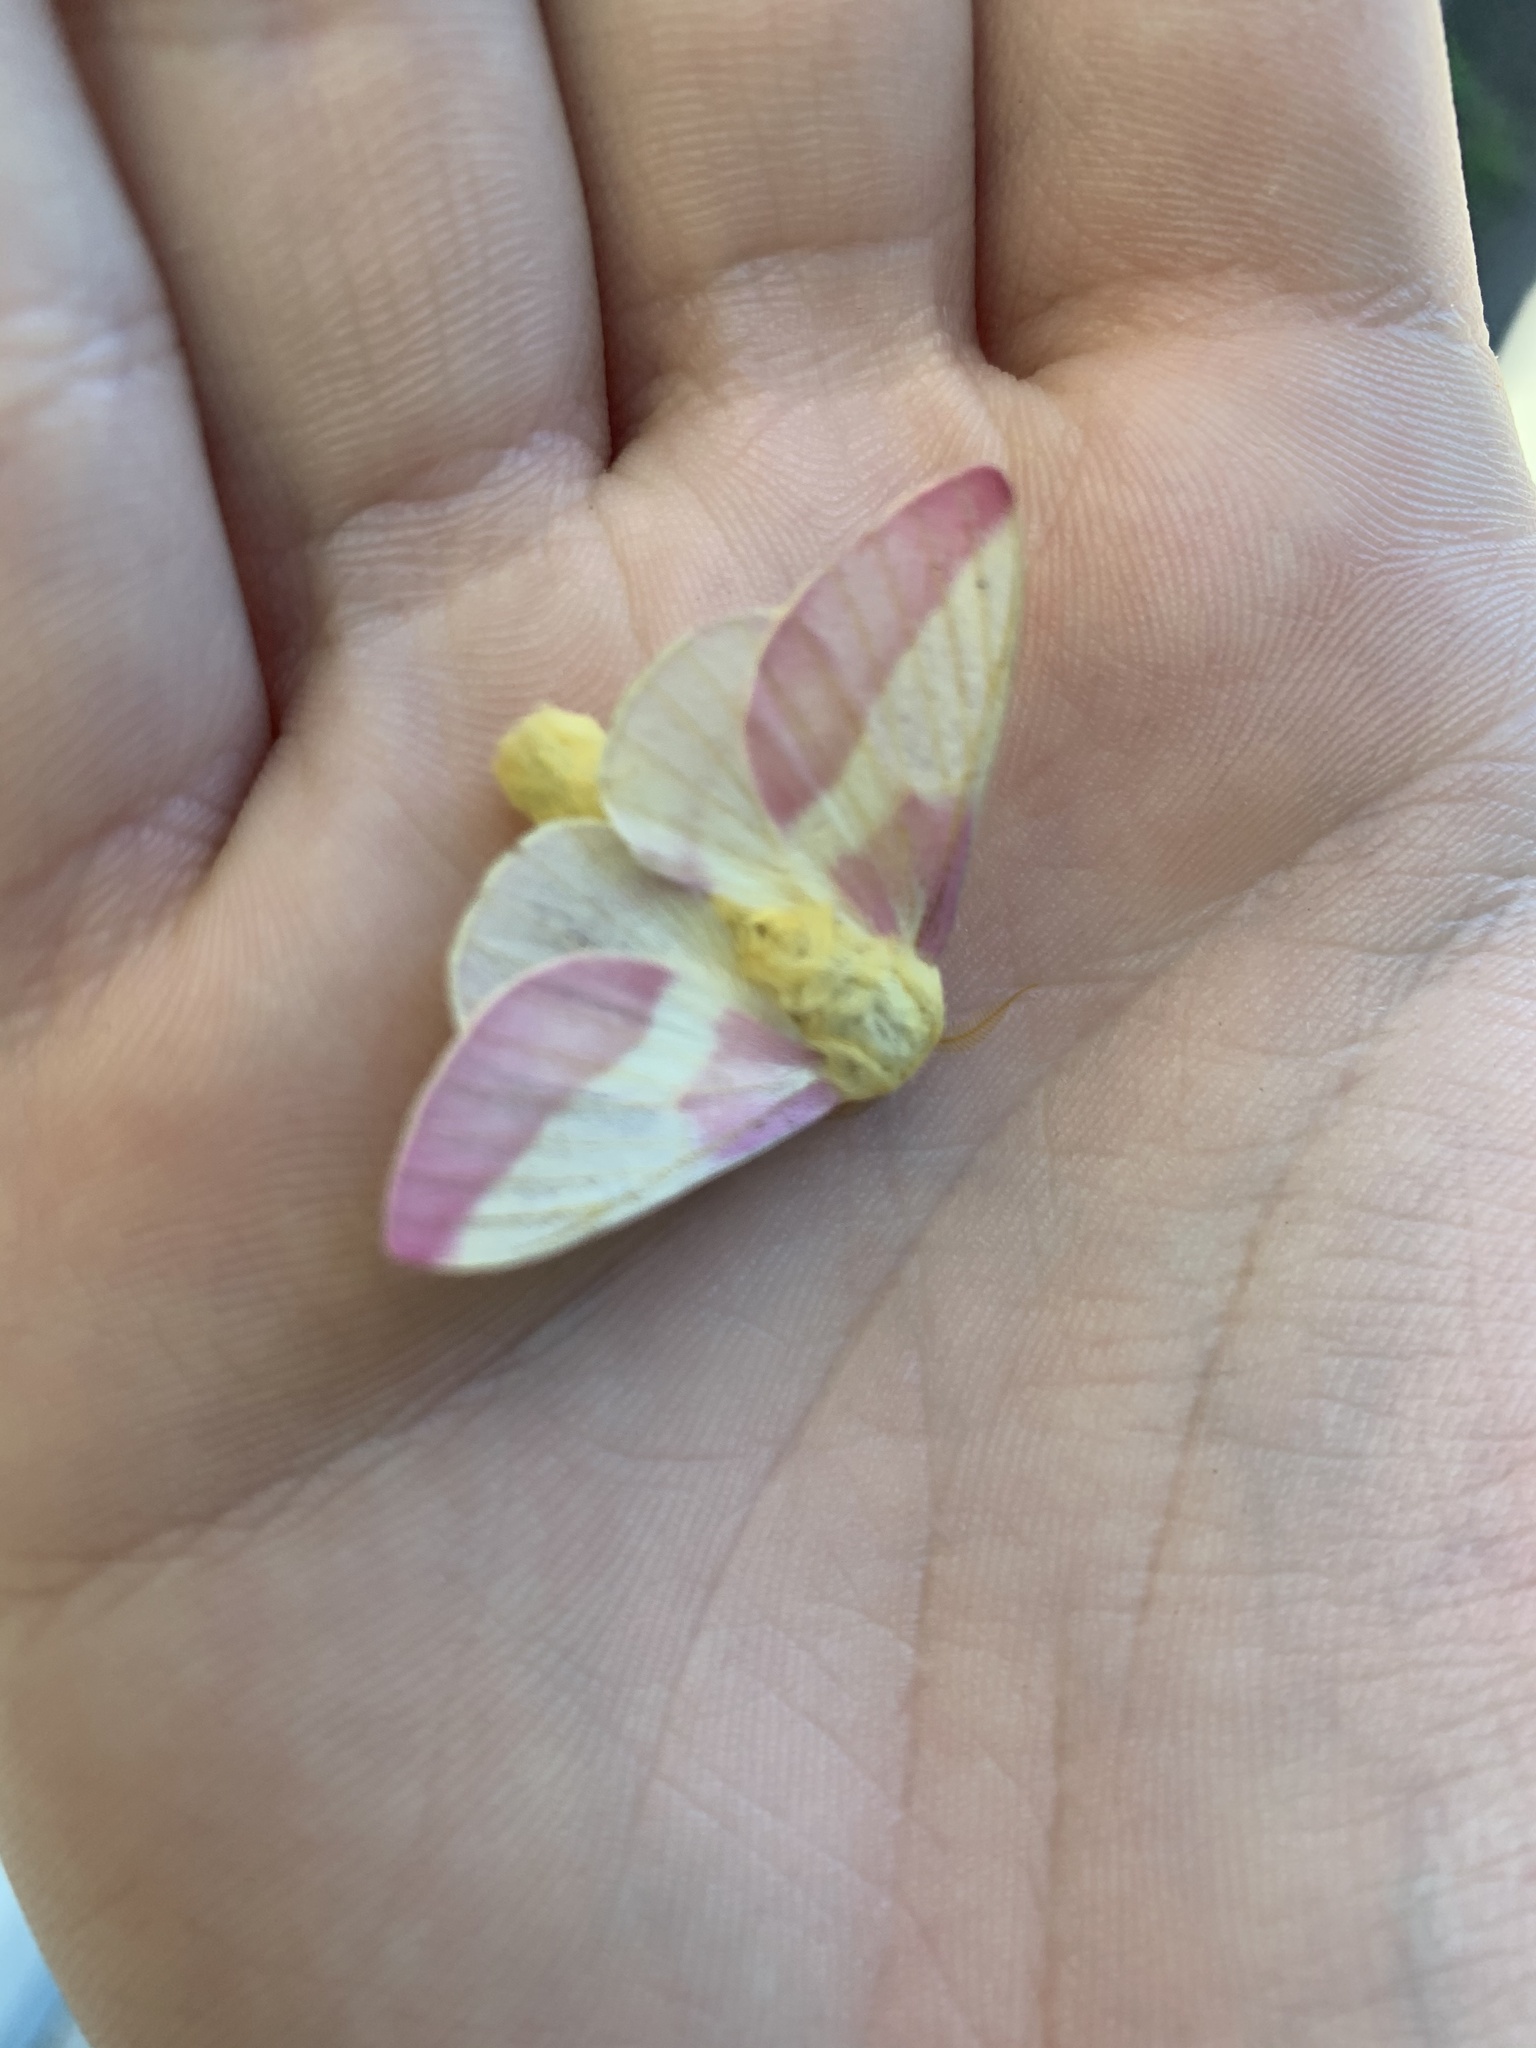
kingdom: Animalia
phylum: Arthropoda
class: Insecta
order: Lepidoptera
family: Saturniidae
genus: Dryocampa
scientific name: Dryocampa rubicunda
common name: Rosy maple moth
